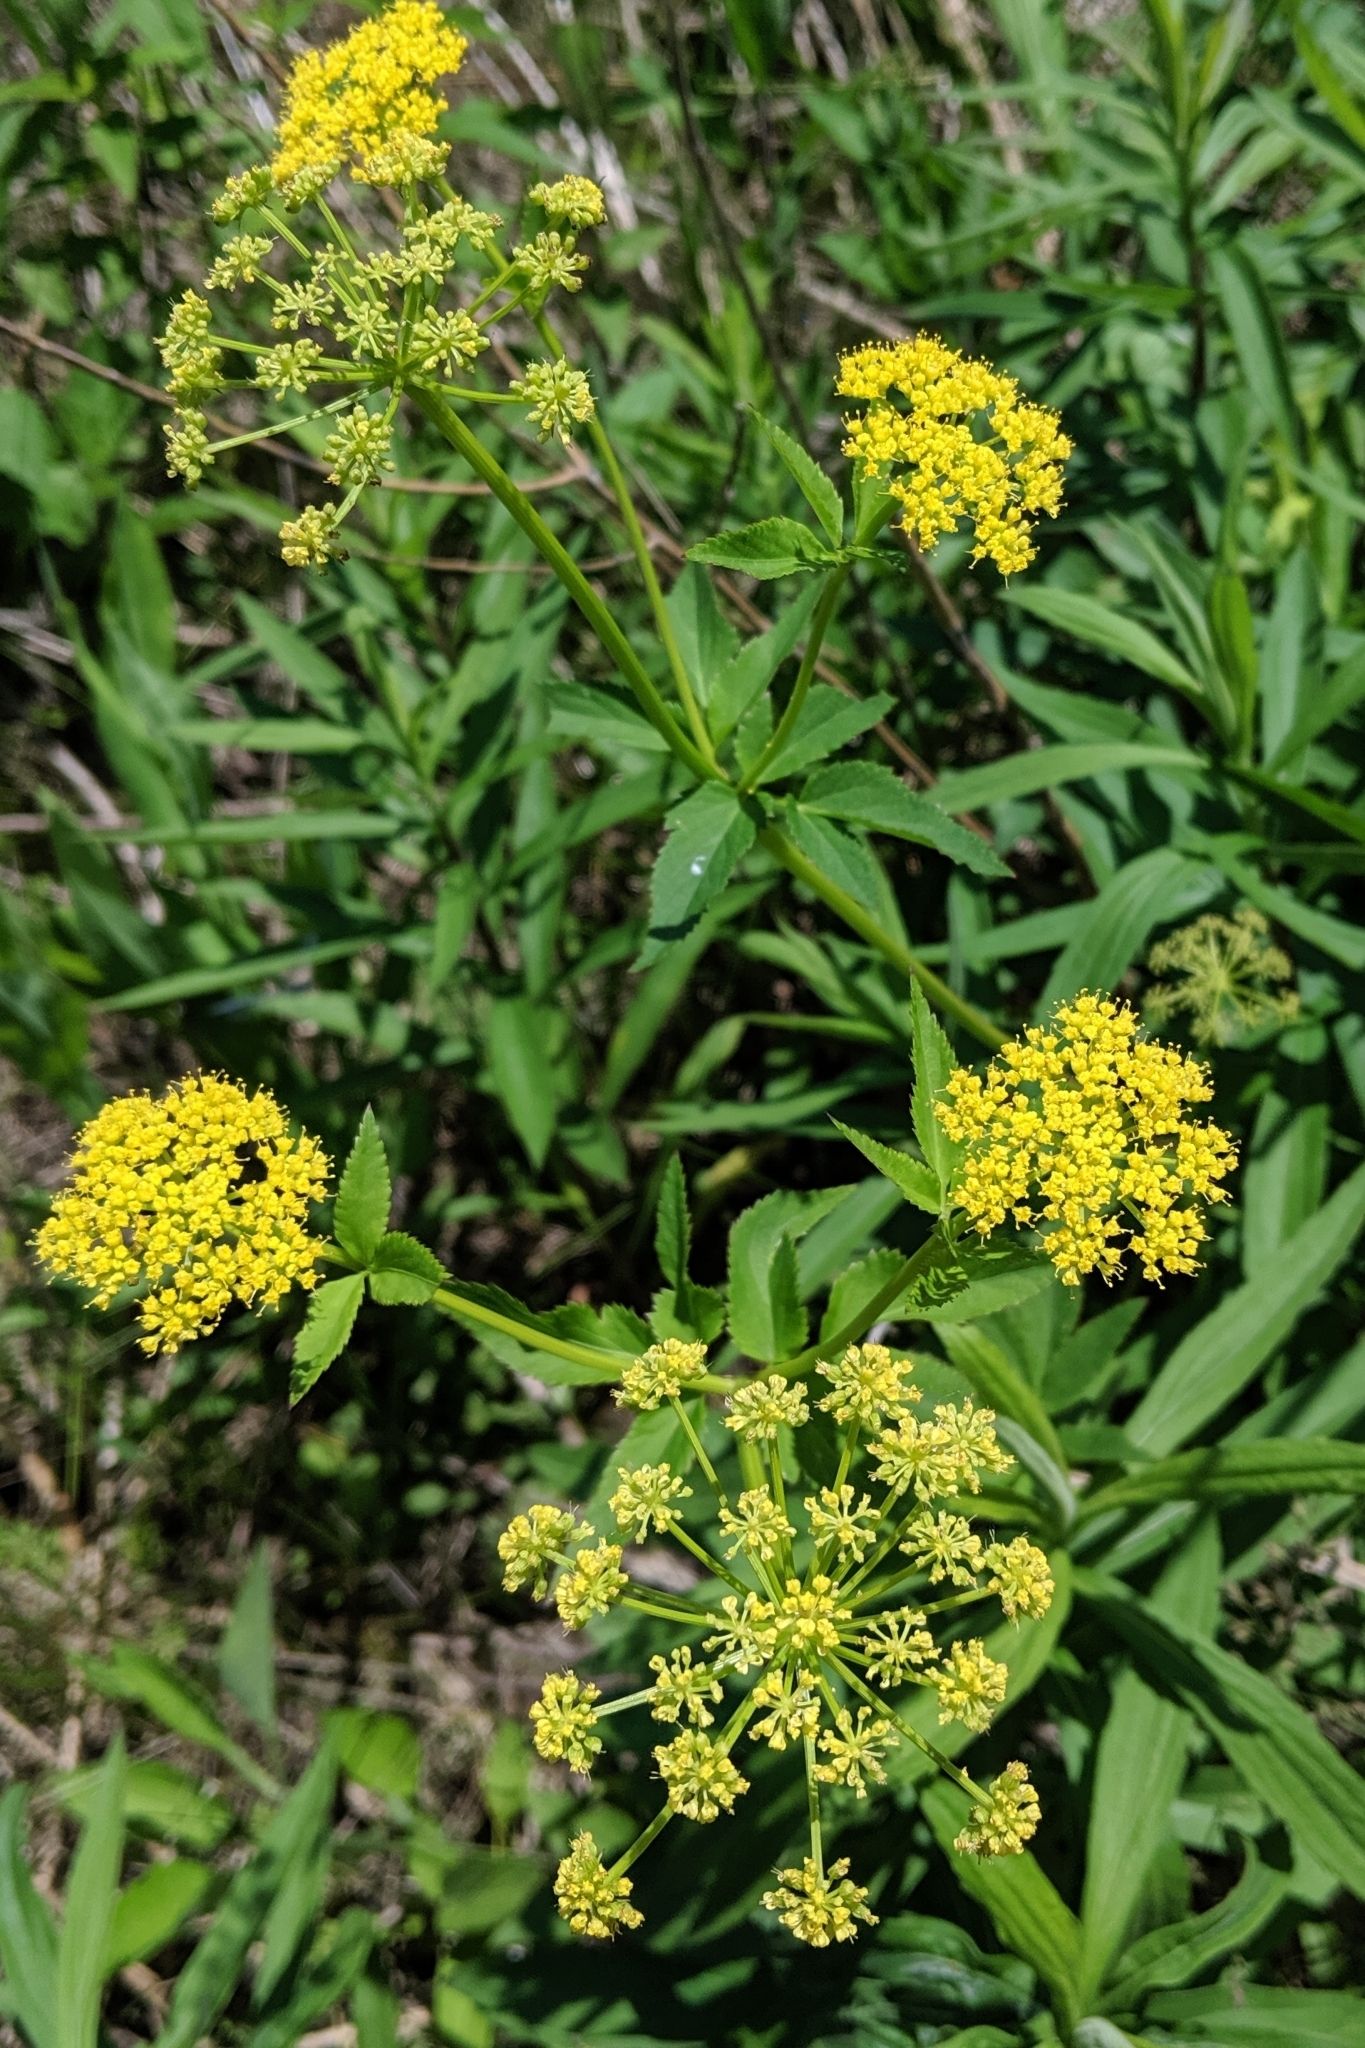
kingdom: Plantae
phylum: Tracheophyta
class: Magnoliopsida
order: Apiales
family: Apiaceae
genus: Zizia
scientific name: Zizia aurea
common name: Golden alexanders
